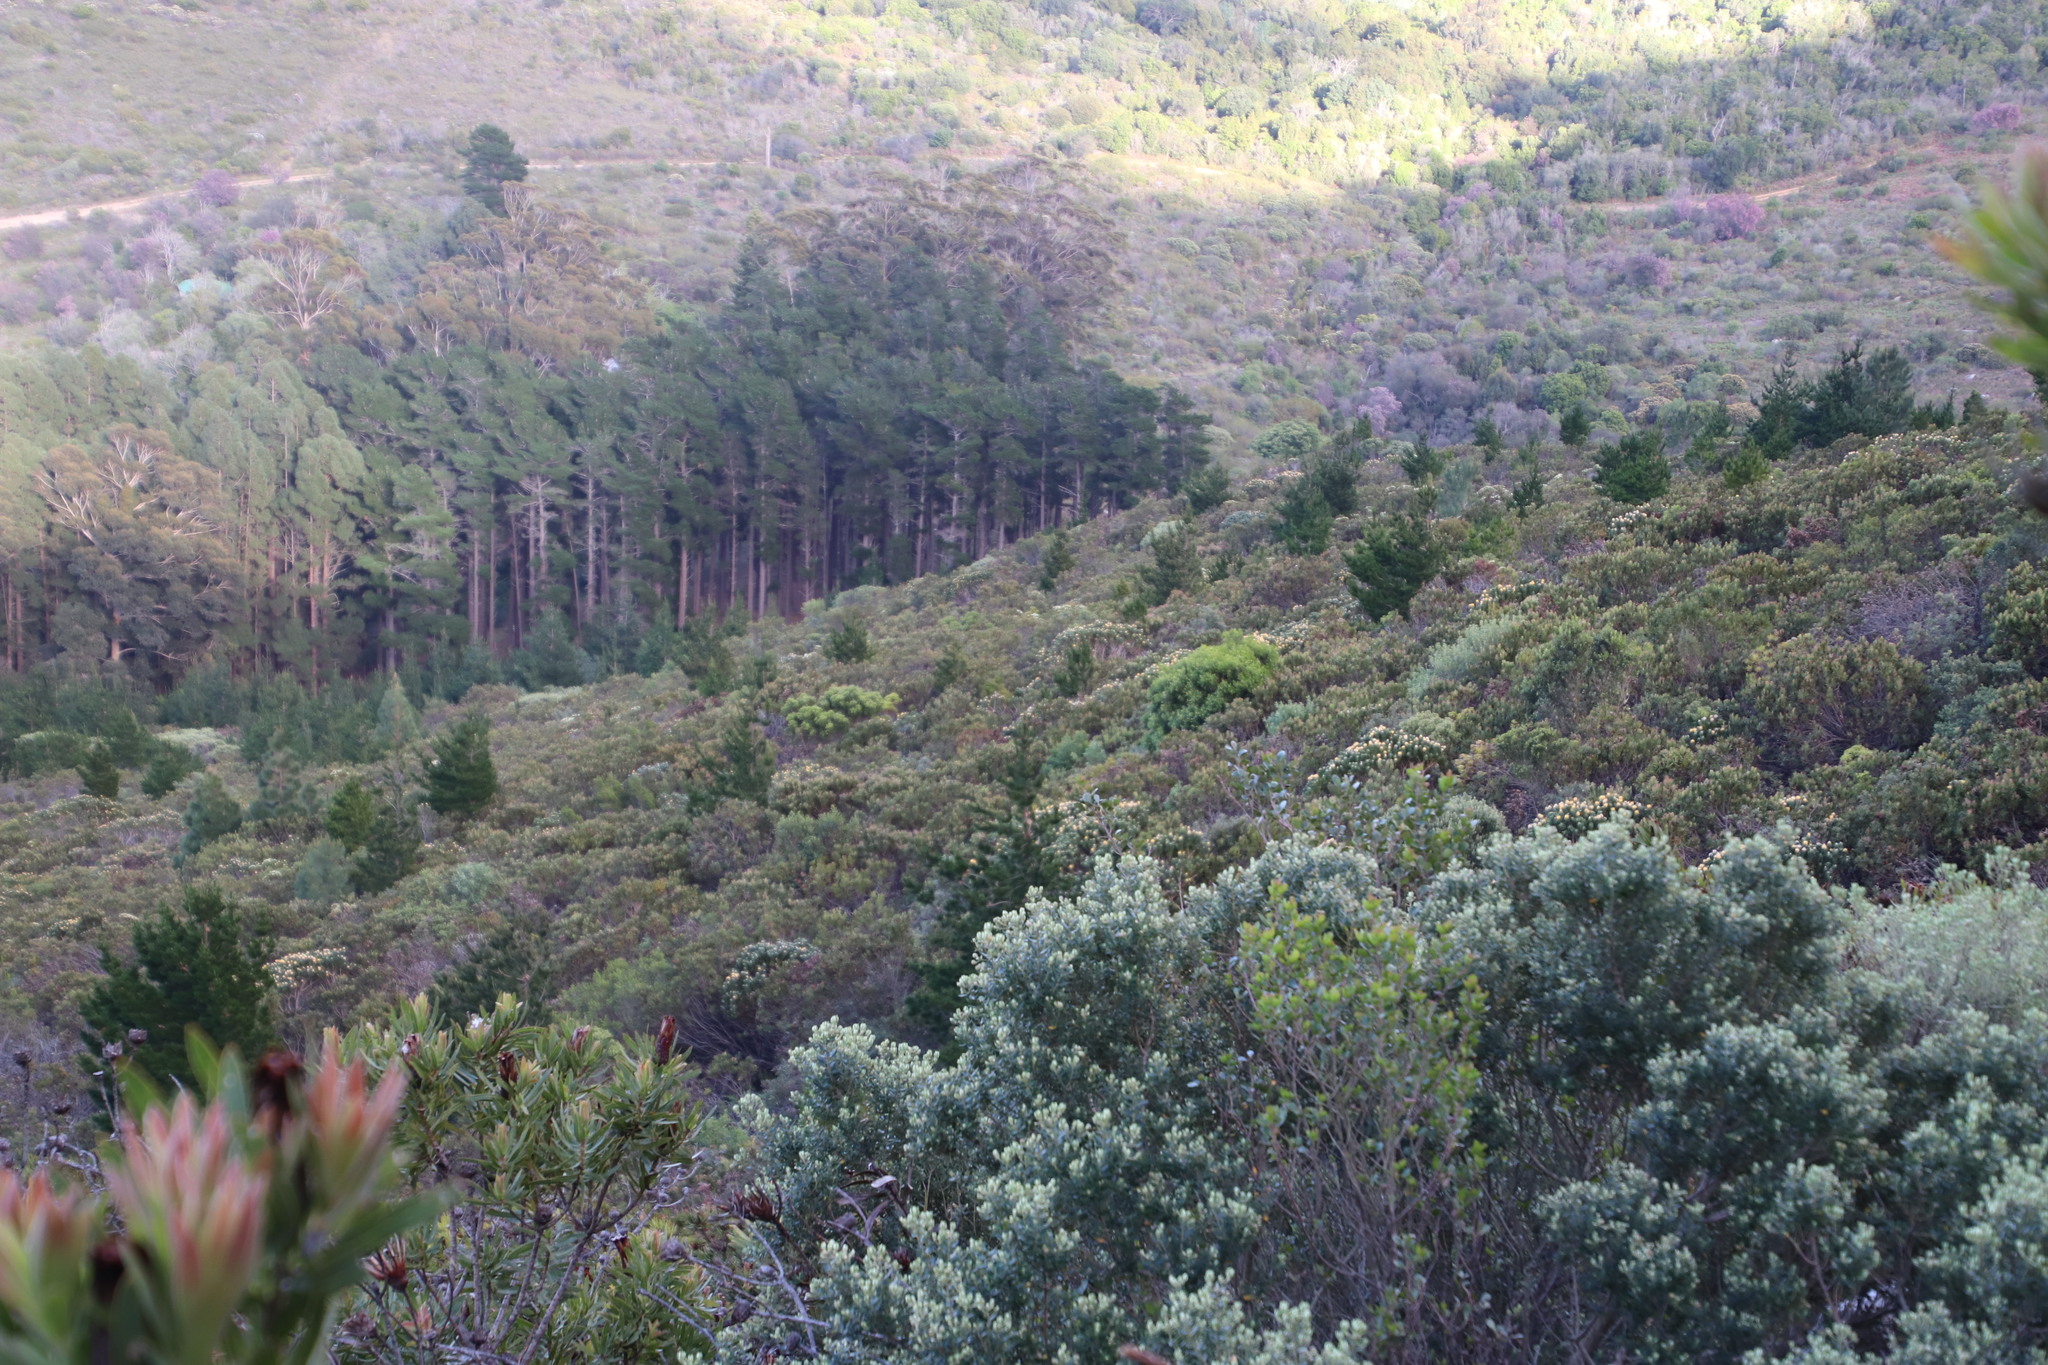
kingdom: Plantae
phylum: Tracheophyta
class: Pinopsida
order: Pinales
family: Pinaceae
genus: Pinus
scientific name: Pinus canariensis
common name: Canary islands pine
